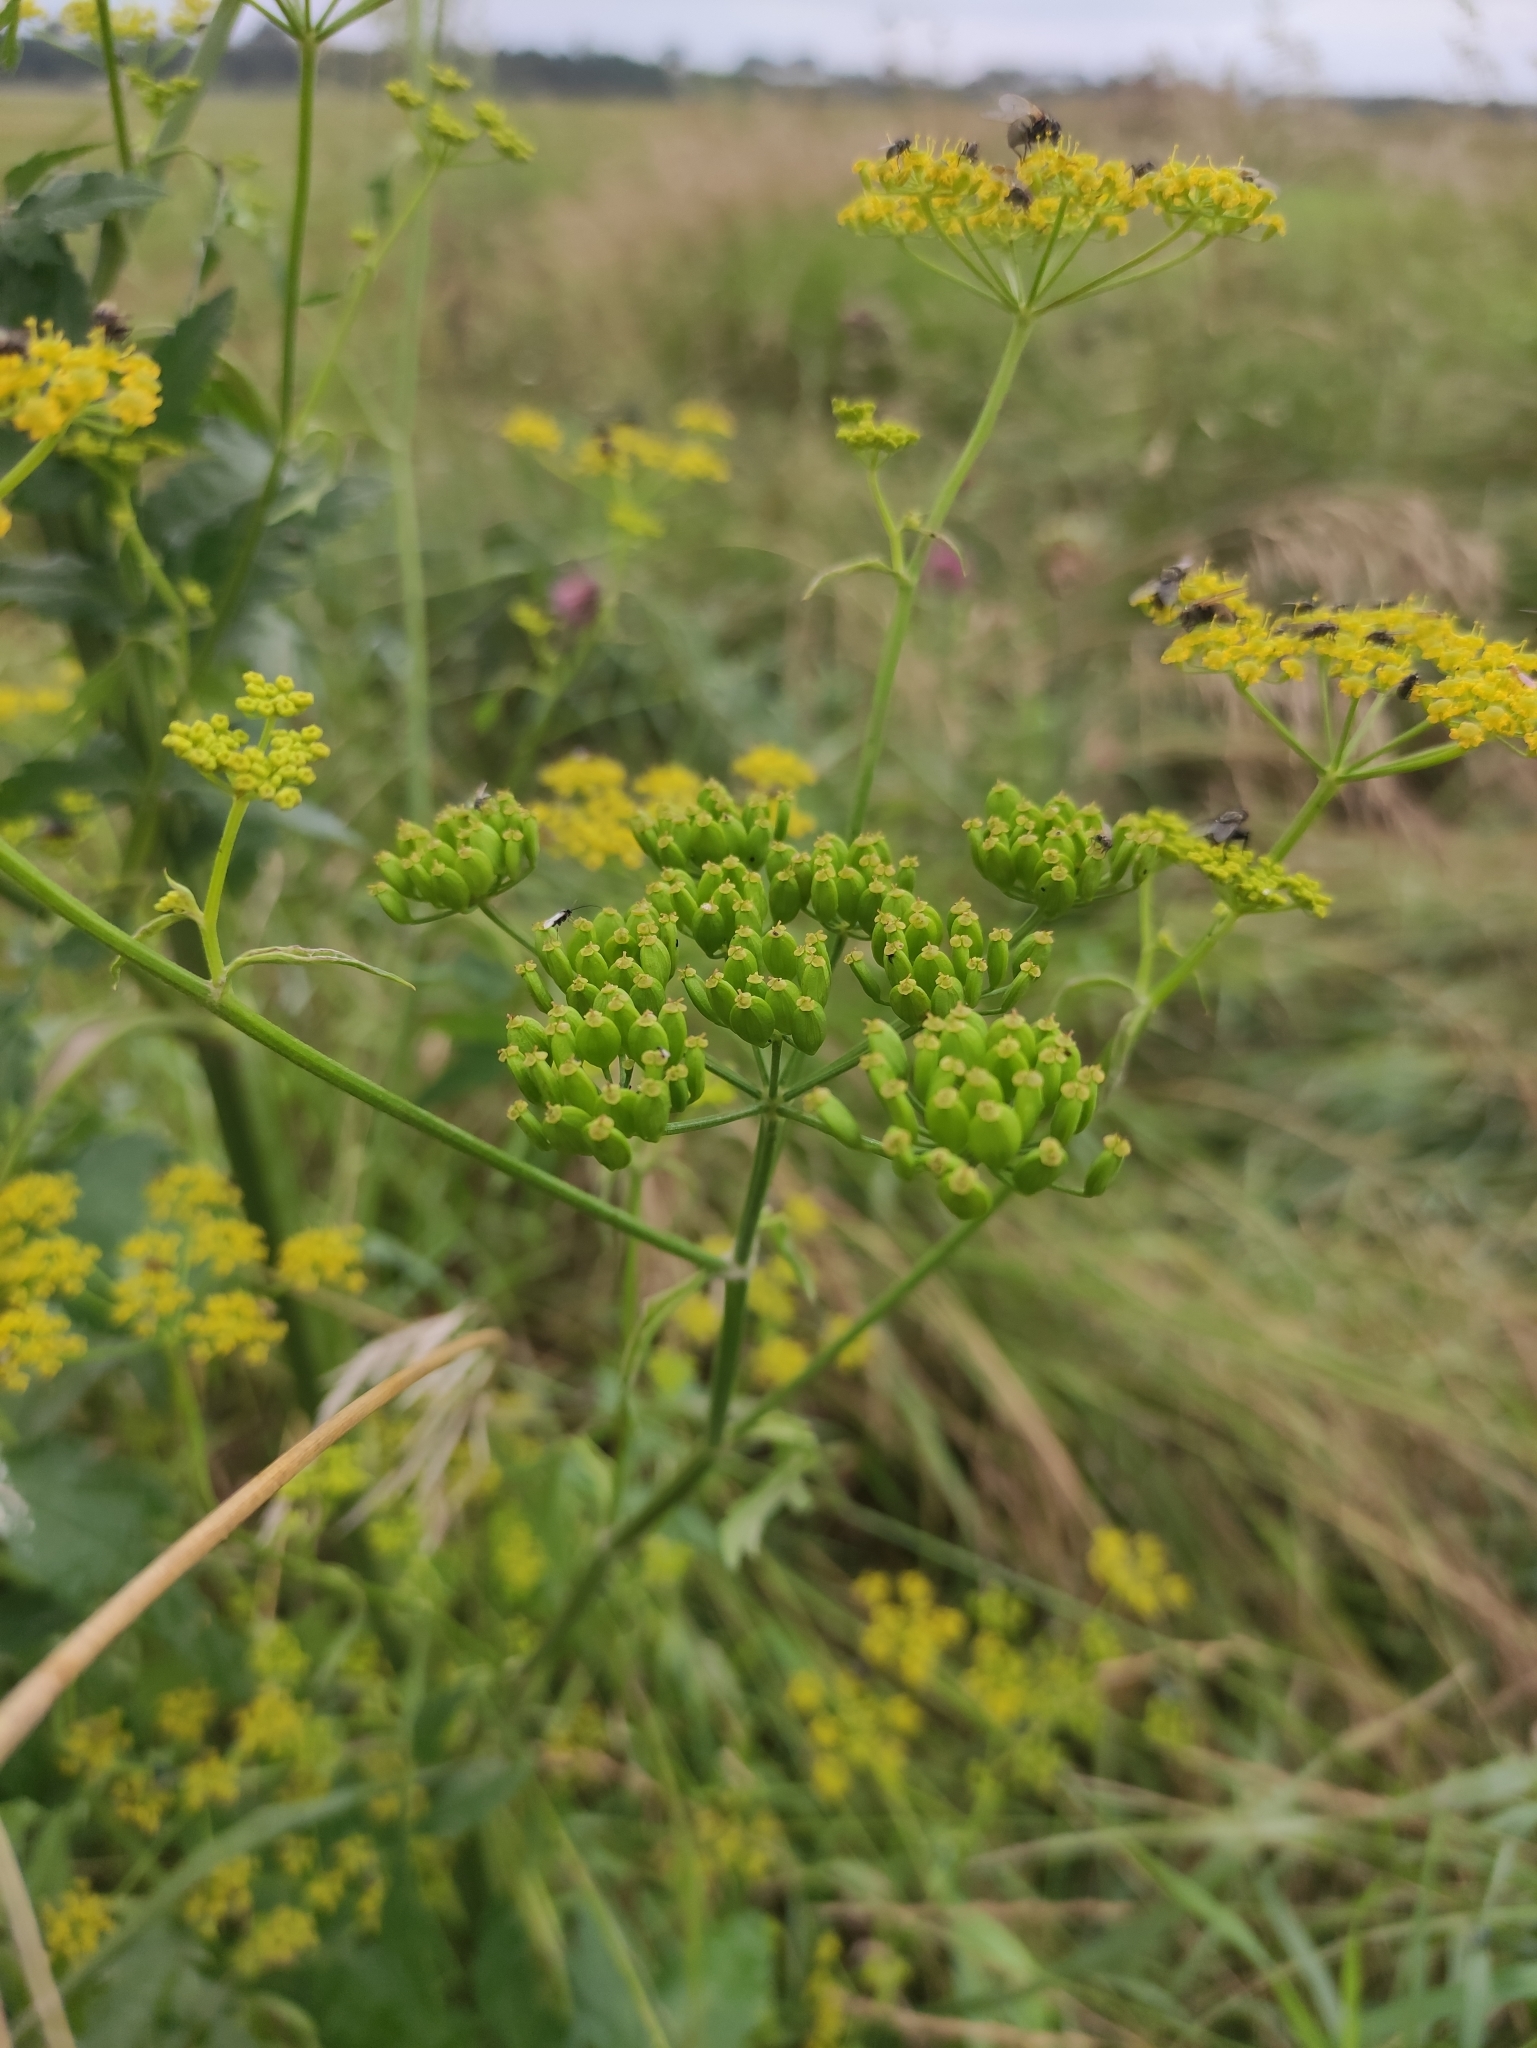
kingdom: Plantae
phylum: Tracheophyta
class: Magnoliopsida
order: Apiales
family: Apiaceae
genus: Pastinaca
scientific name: Pastinaca sativa
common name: Wild parsnip
